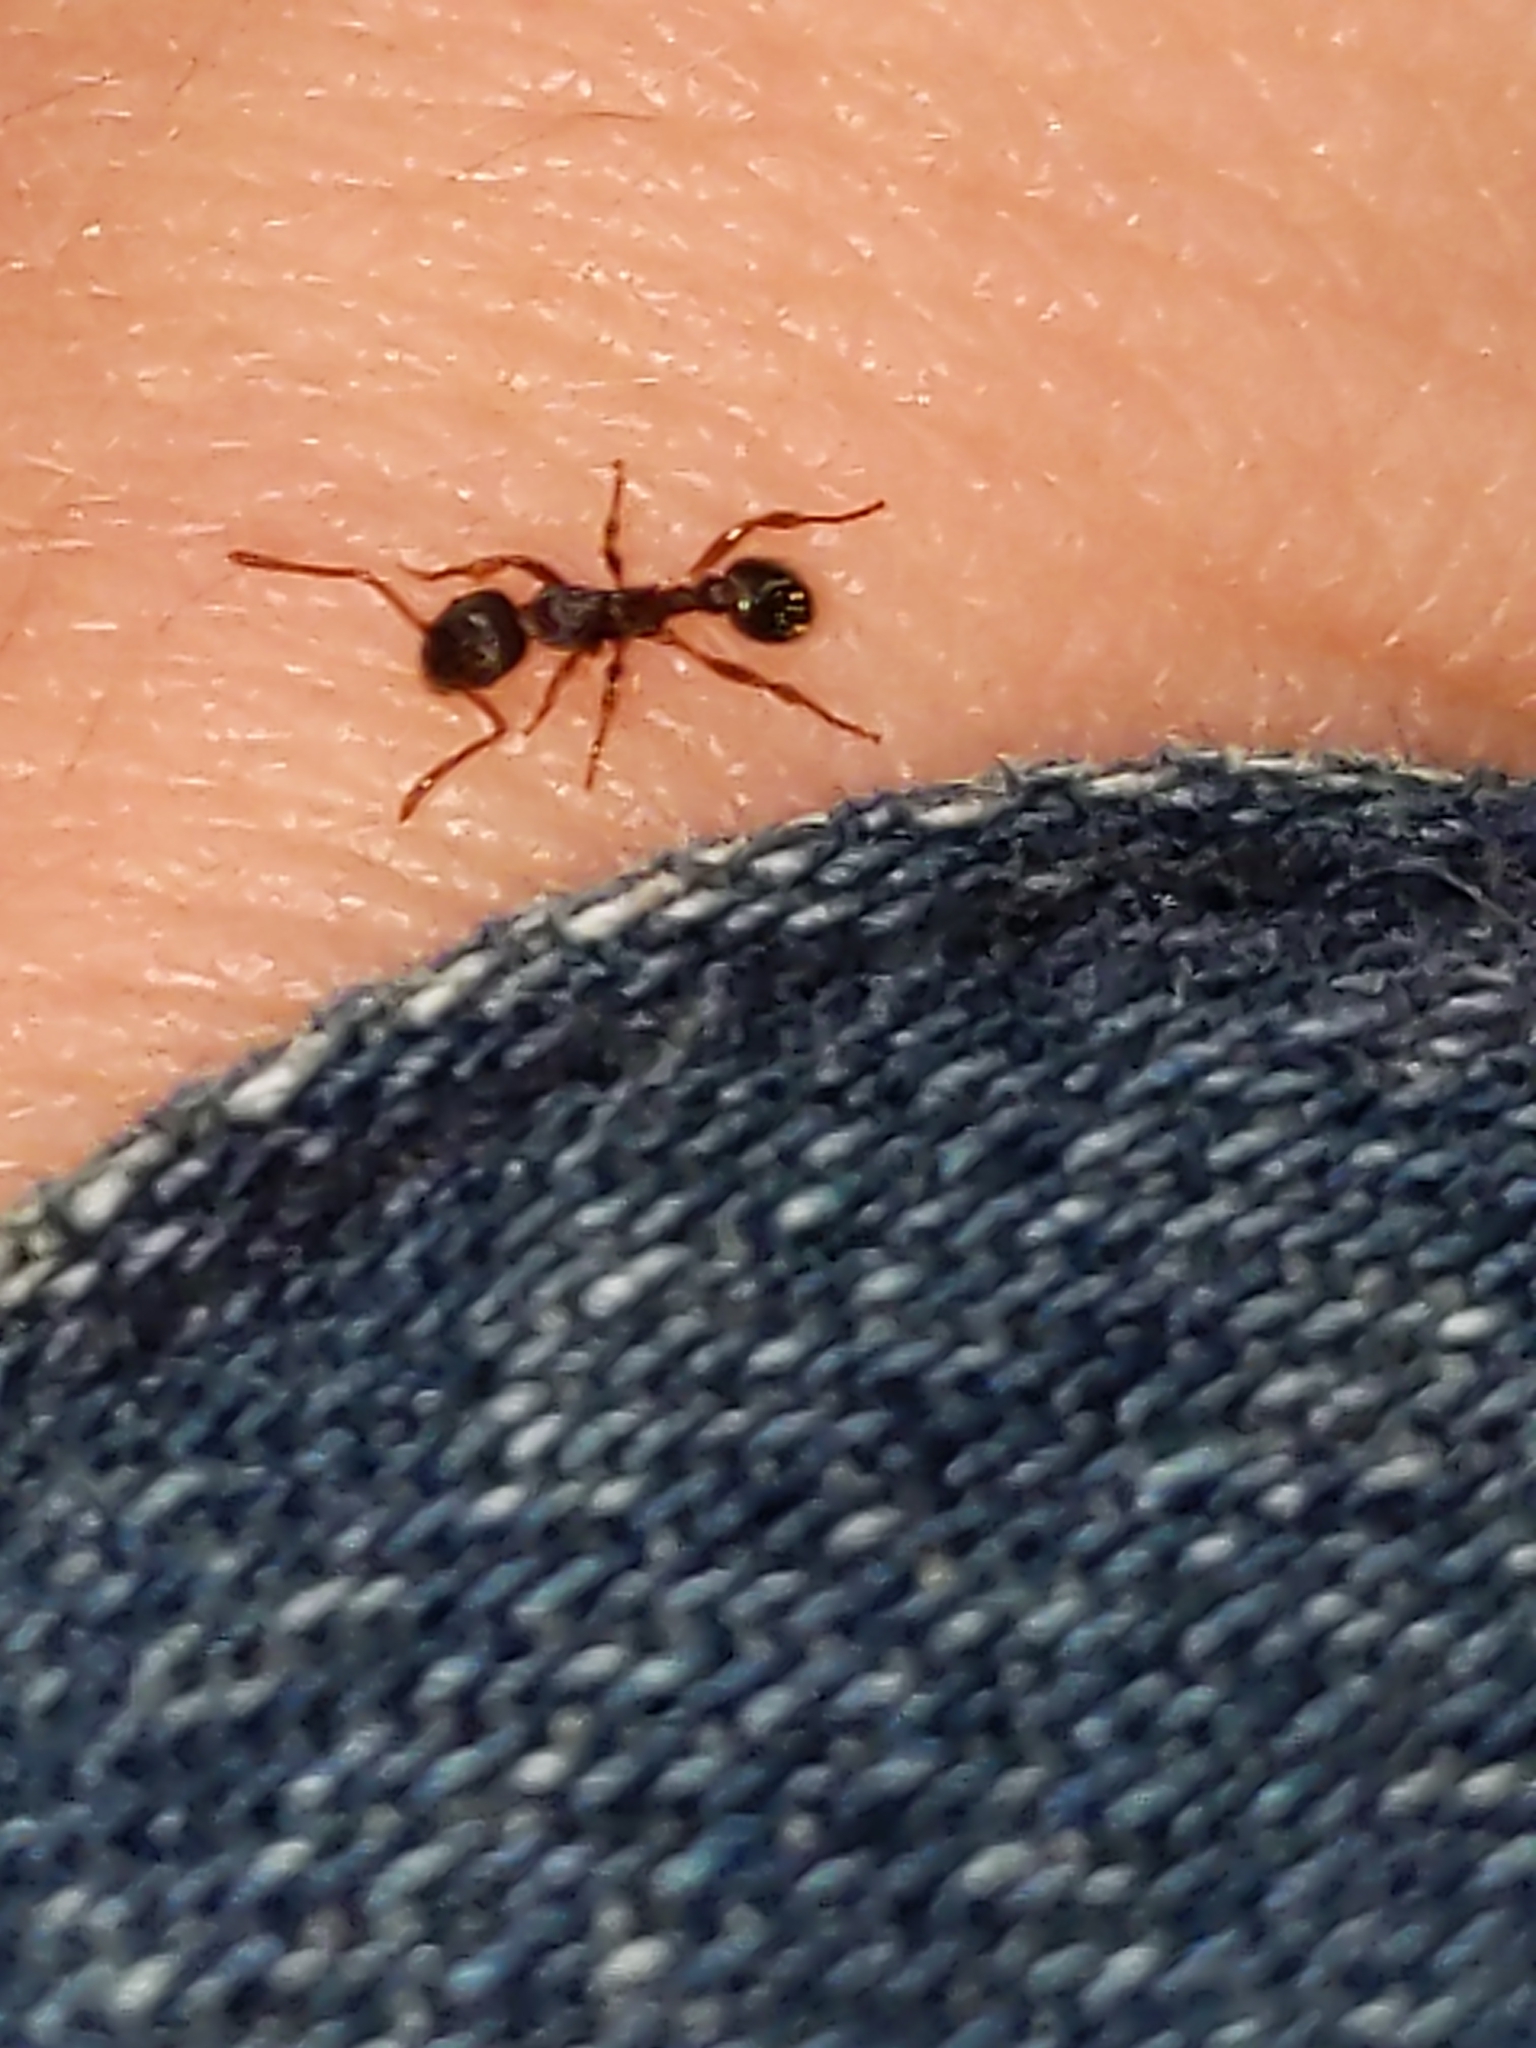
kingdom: Animalia
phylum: Arthropoda
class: Insecta
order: Hymenoptera
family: Formicidae
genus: Myrmica
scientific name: Myrmica
